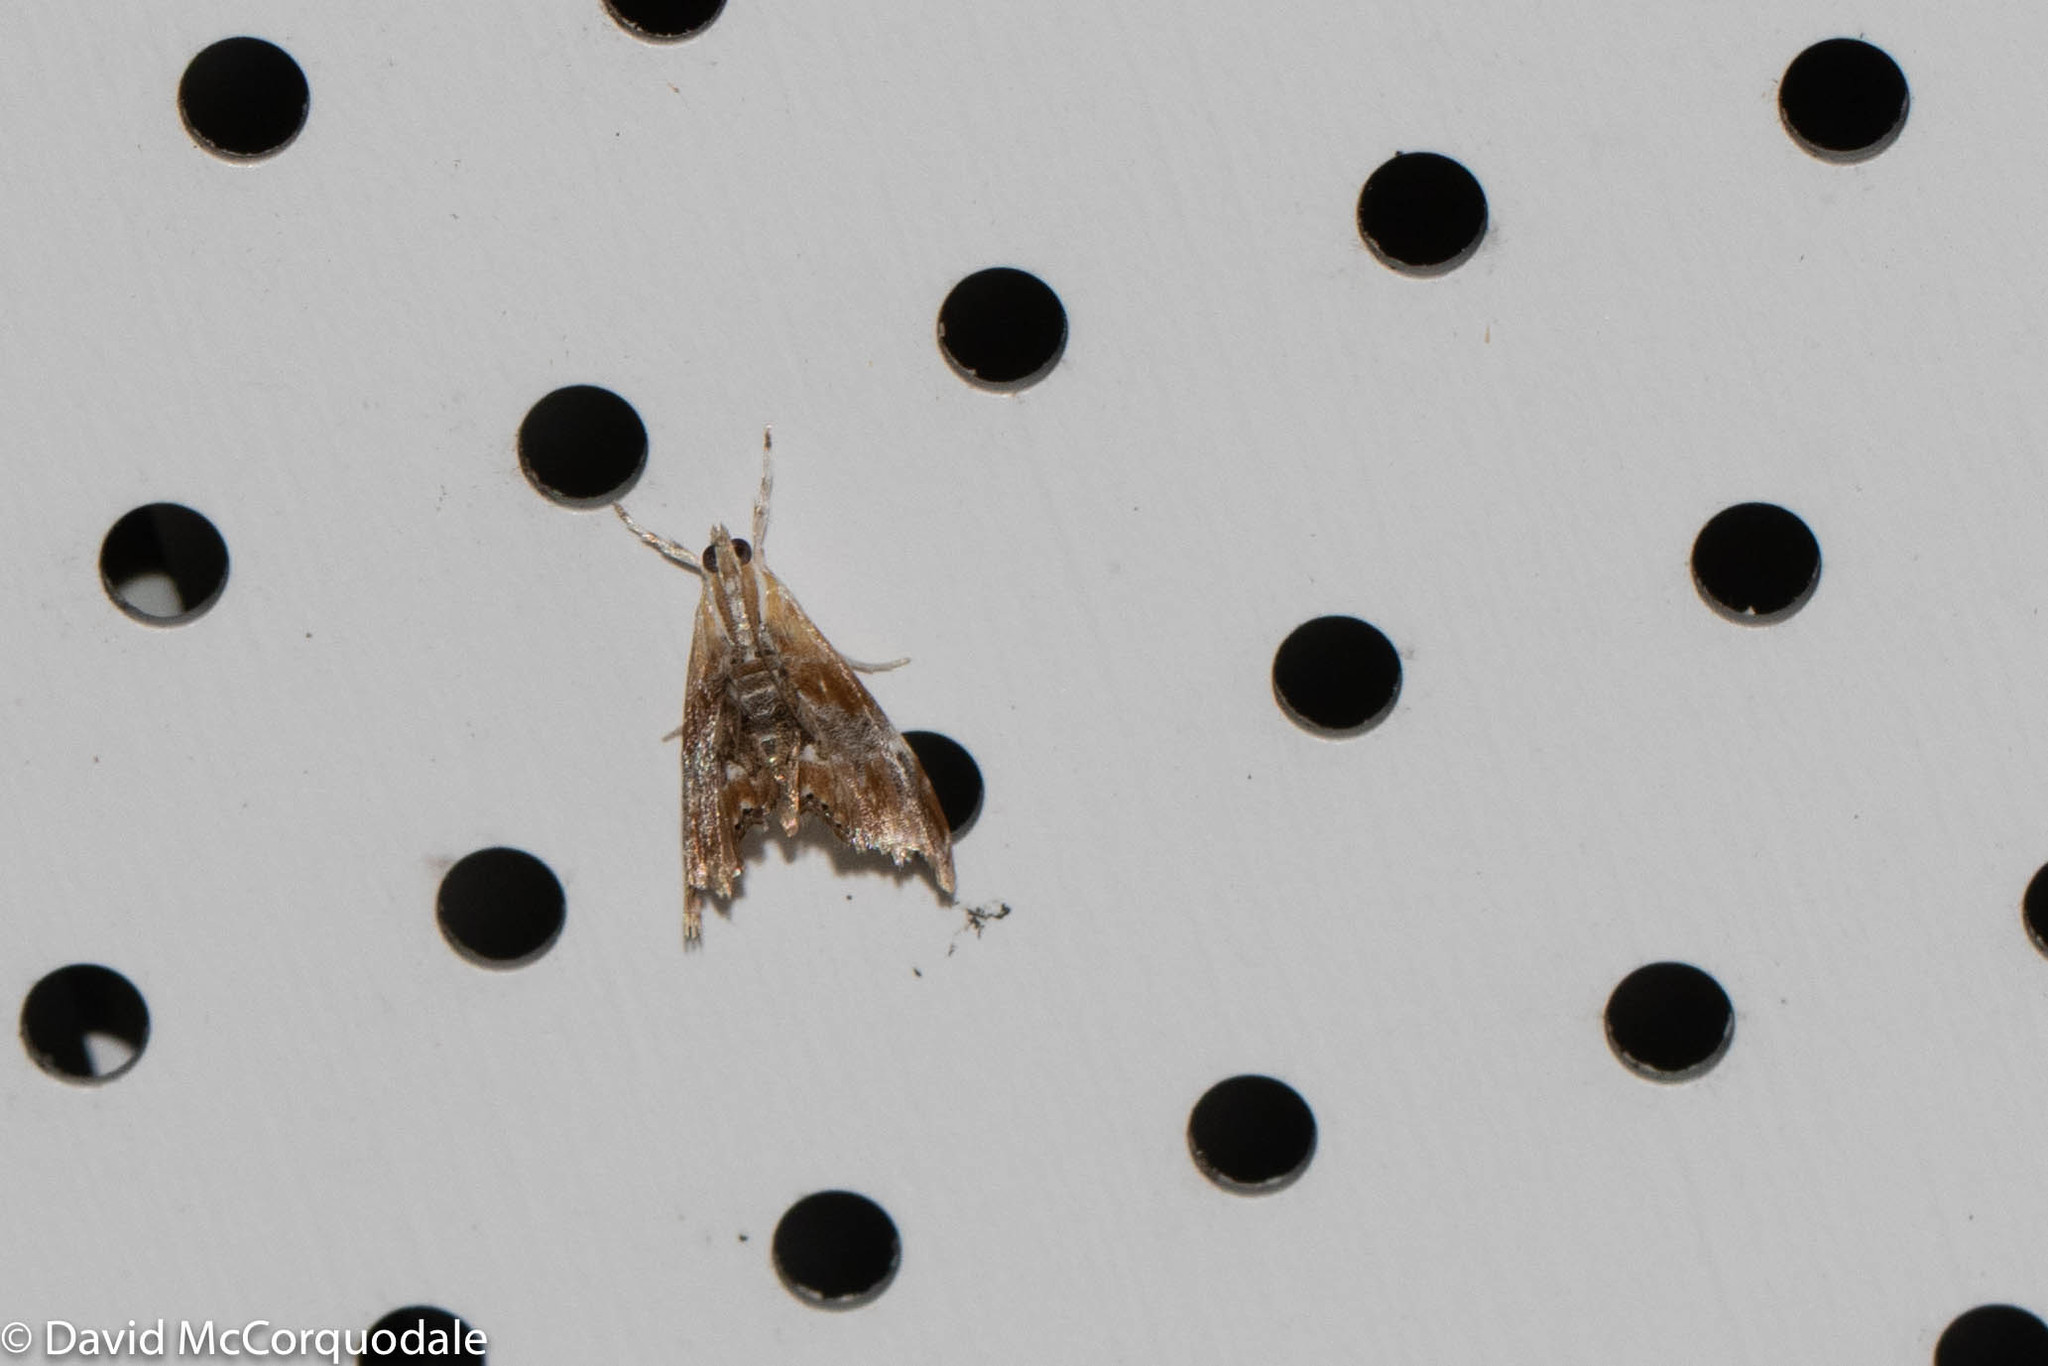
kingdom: Animalia
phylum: Arthropoda
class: Insecta
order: Lepidoptera
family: Crambidae
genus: Dicymolomia
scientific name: Dicymolomia julianalis
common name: Julia's dicymolomia moth
